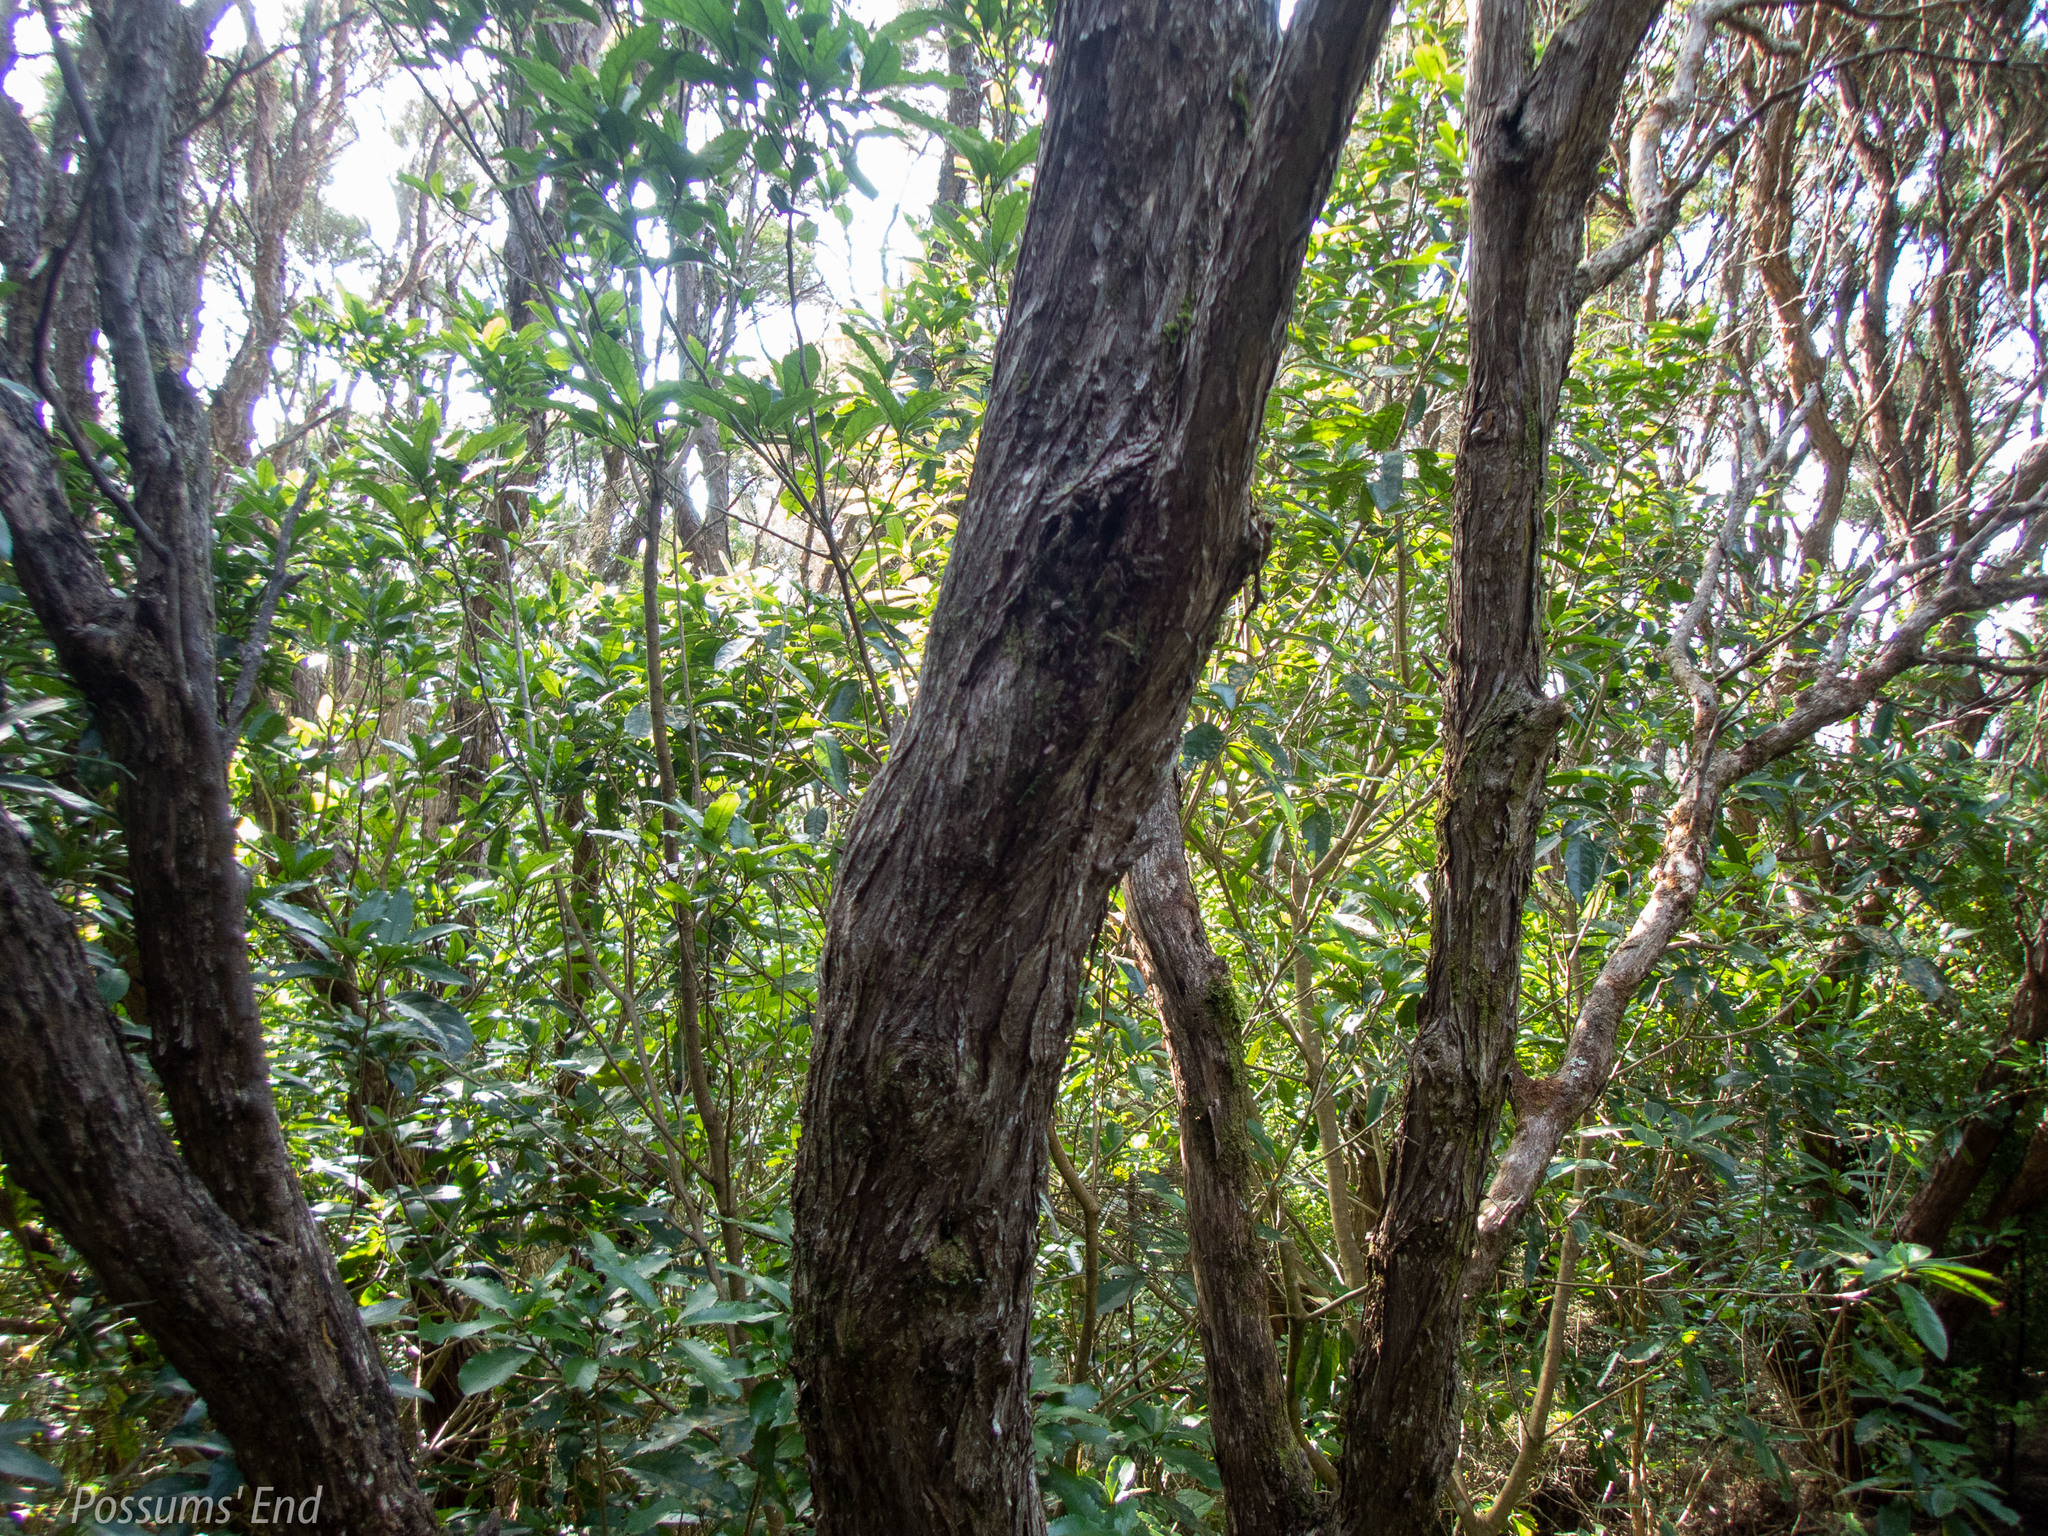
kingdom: Animalia
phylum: Arthropoda
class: Insecta
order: Lepidoptera
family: Geometridae
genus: Pseudocoremia
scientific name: Pseudocoremia
